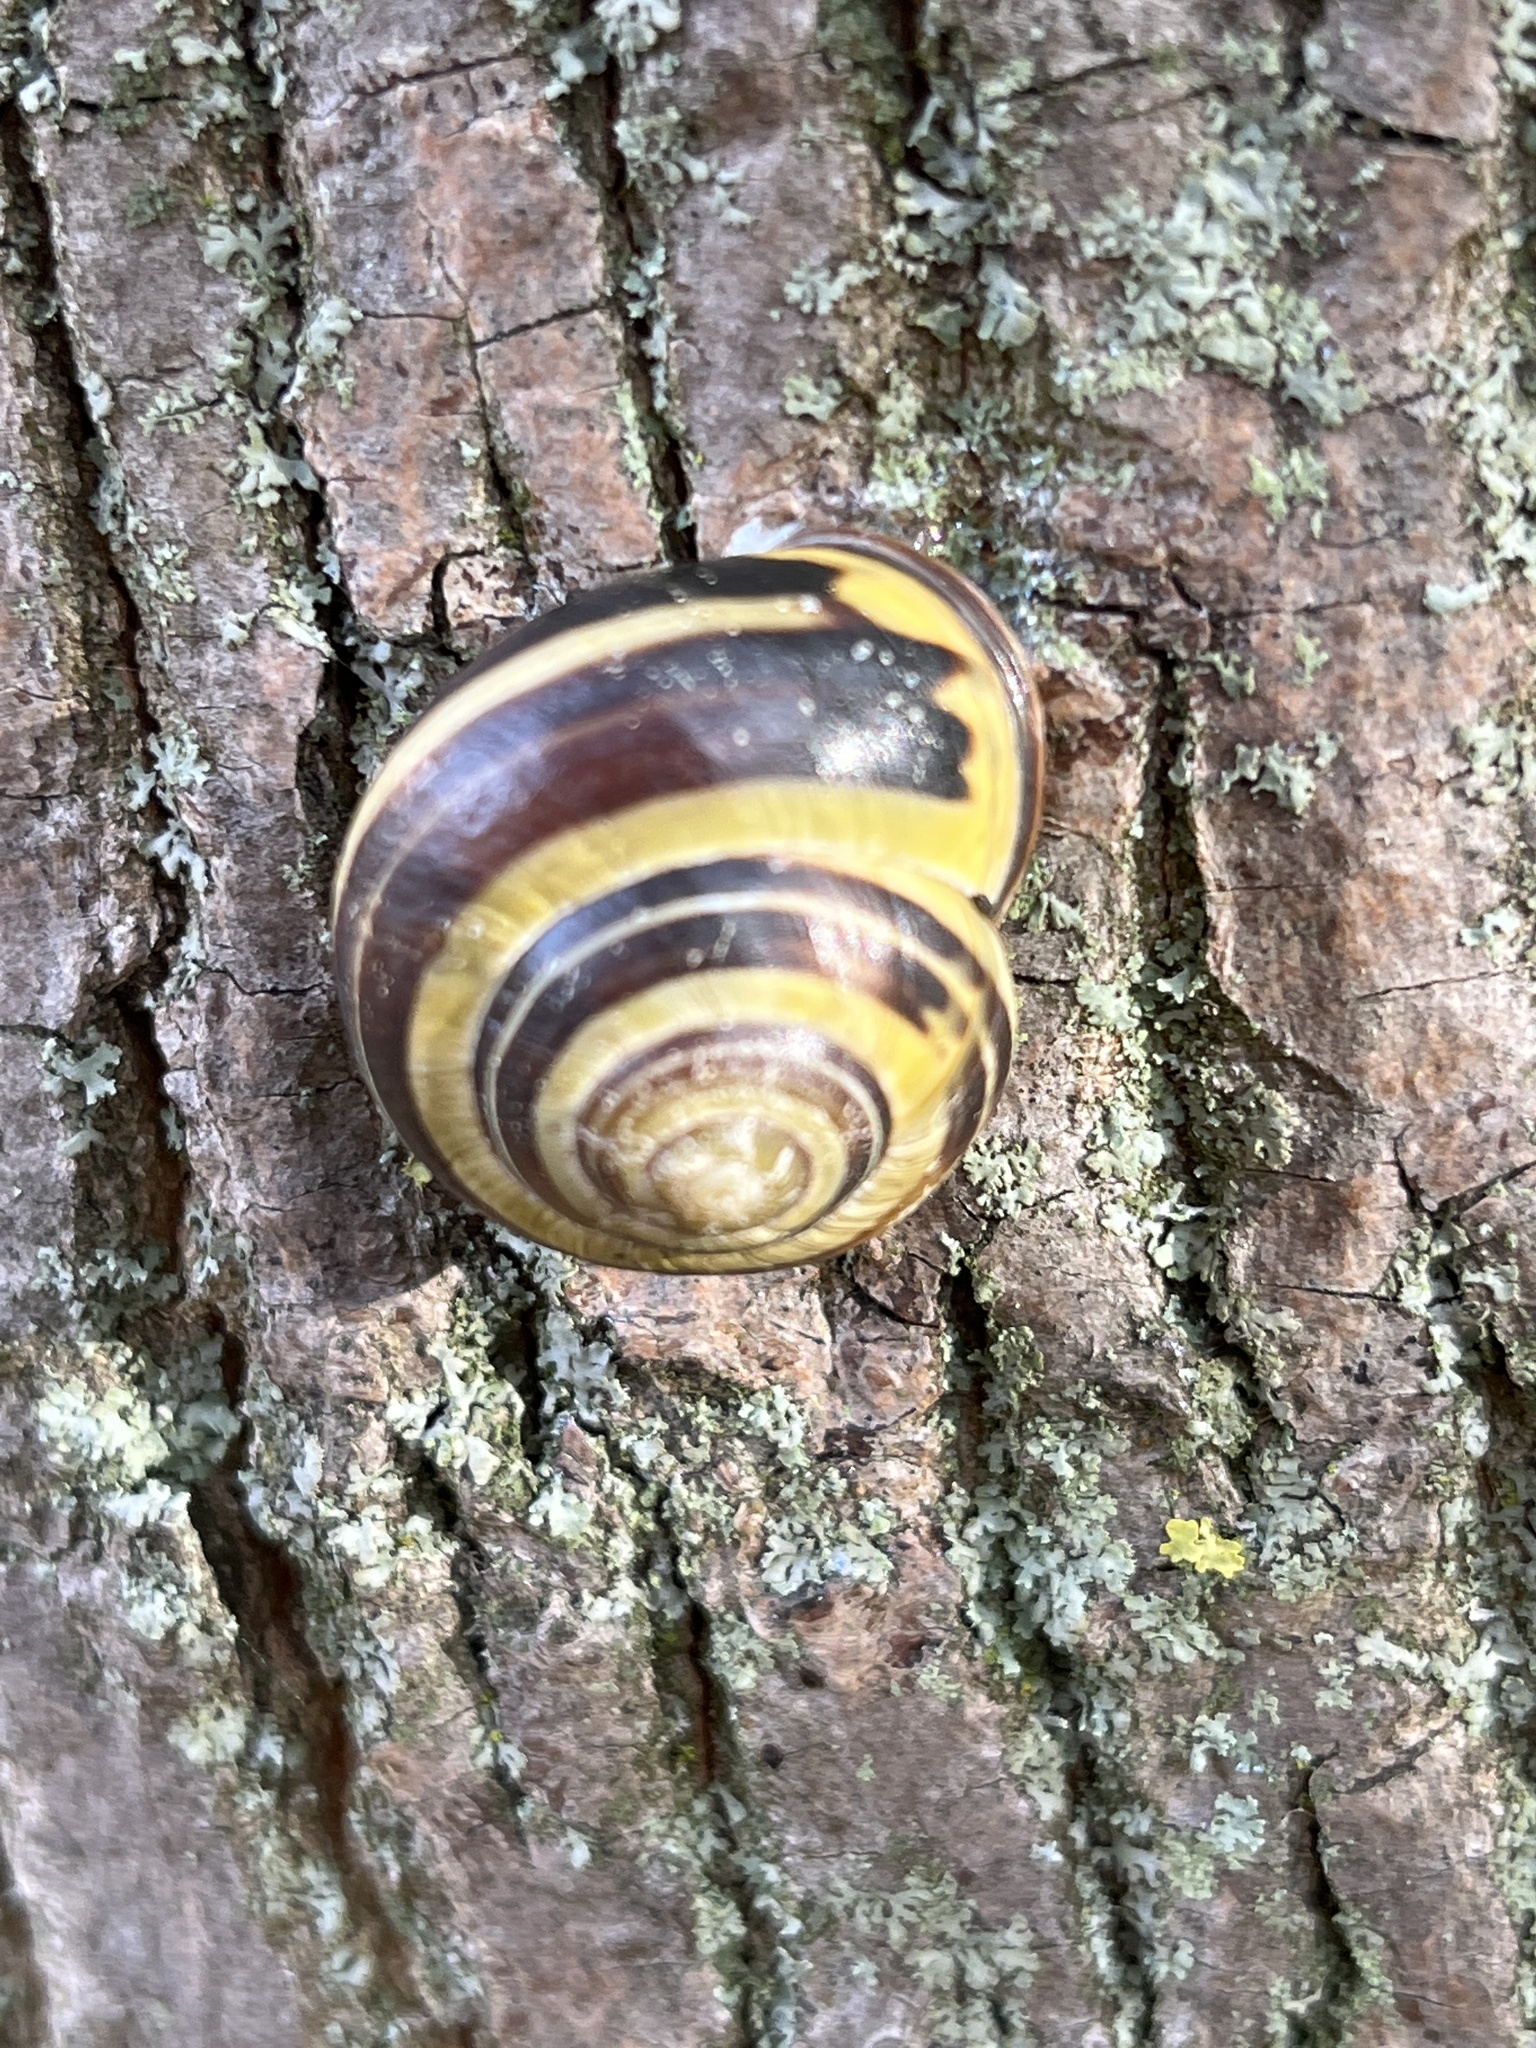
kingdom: Animalia
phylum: Mollusca
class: Gastropoda
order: Stylommatophora
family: Helicidae
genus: Cepaea
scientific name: Cepaea nemoralis
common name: Grovesnail
